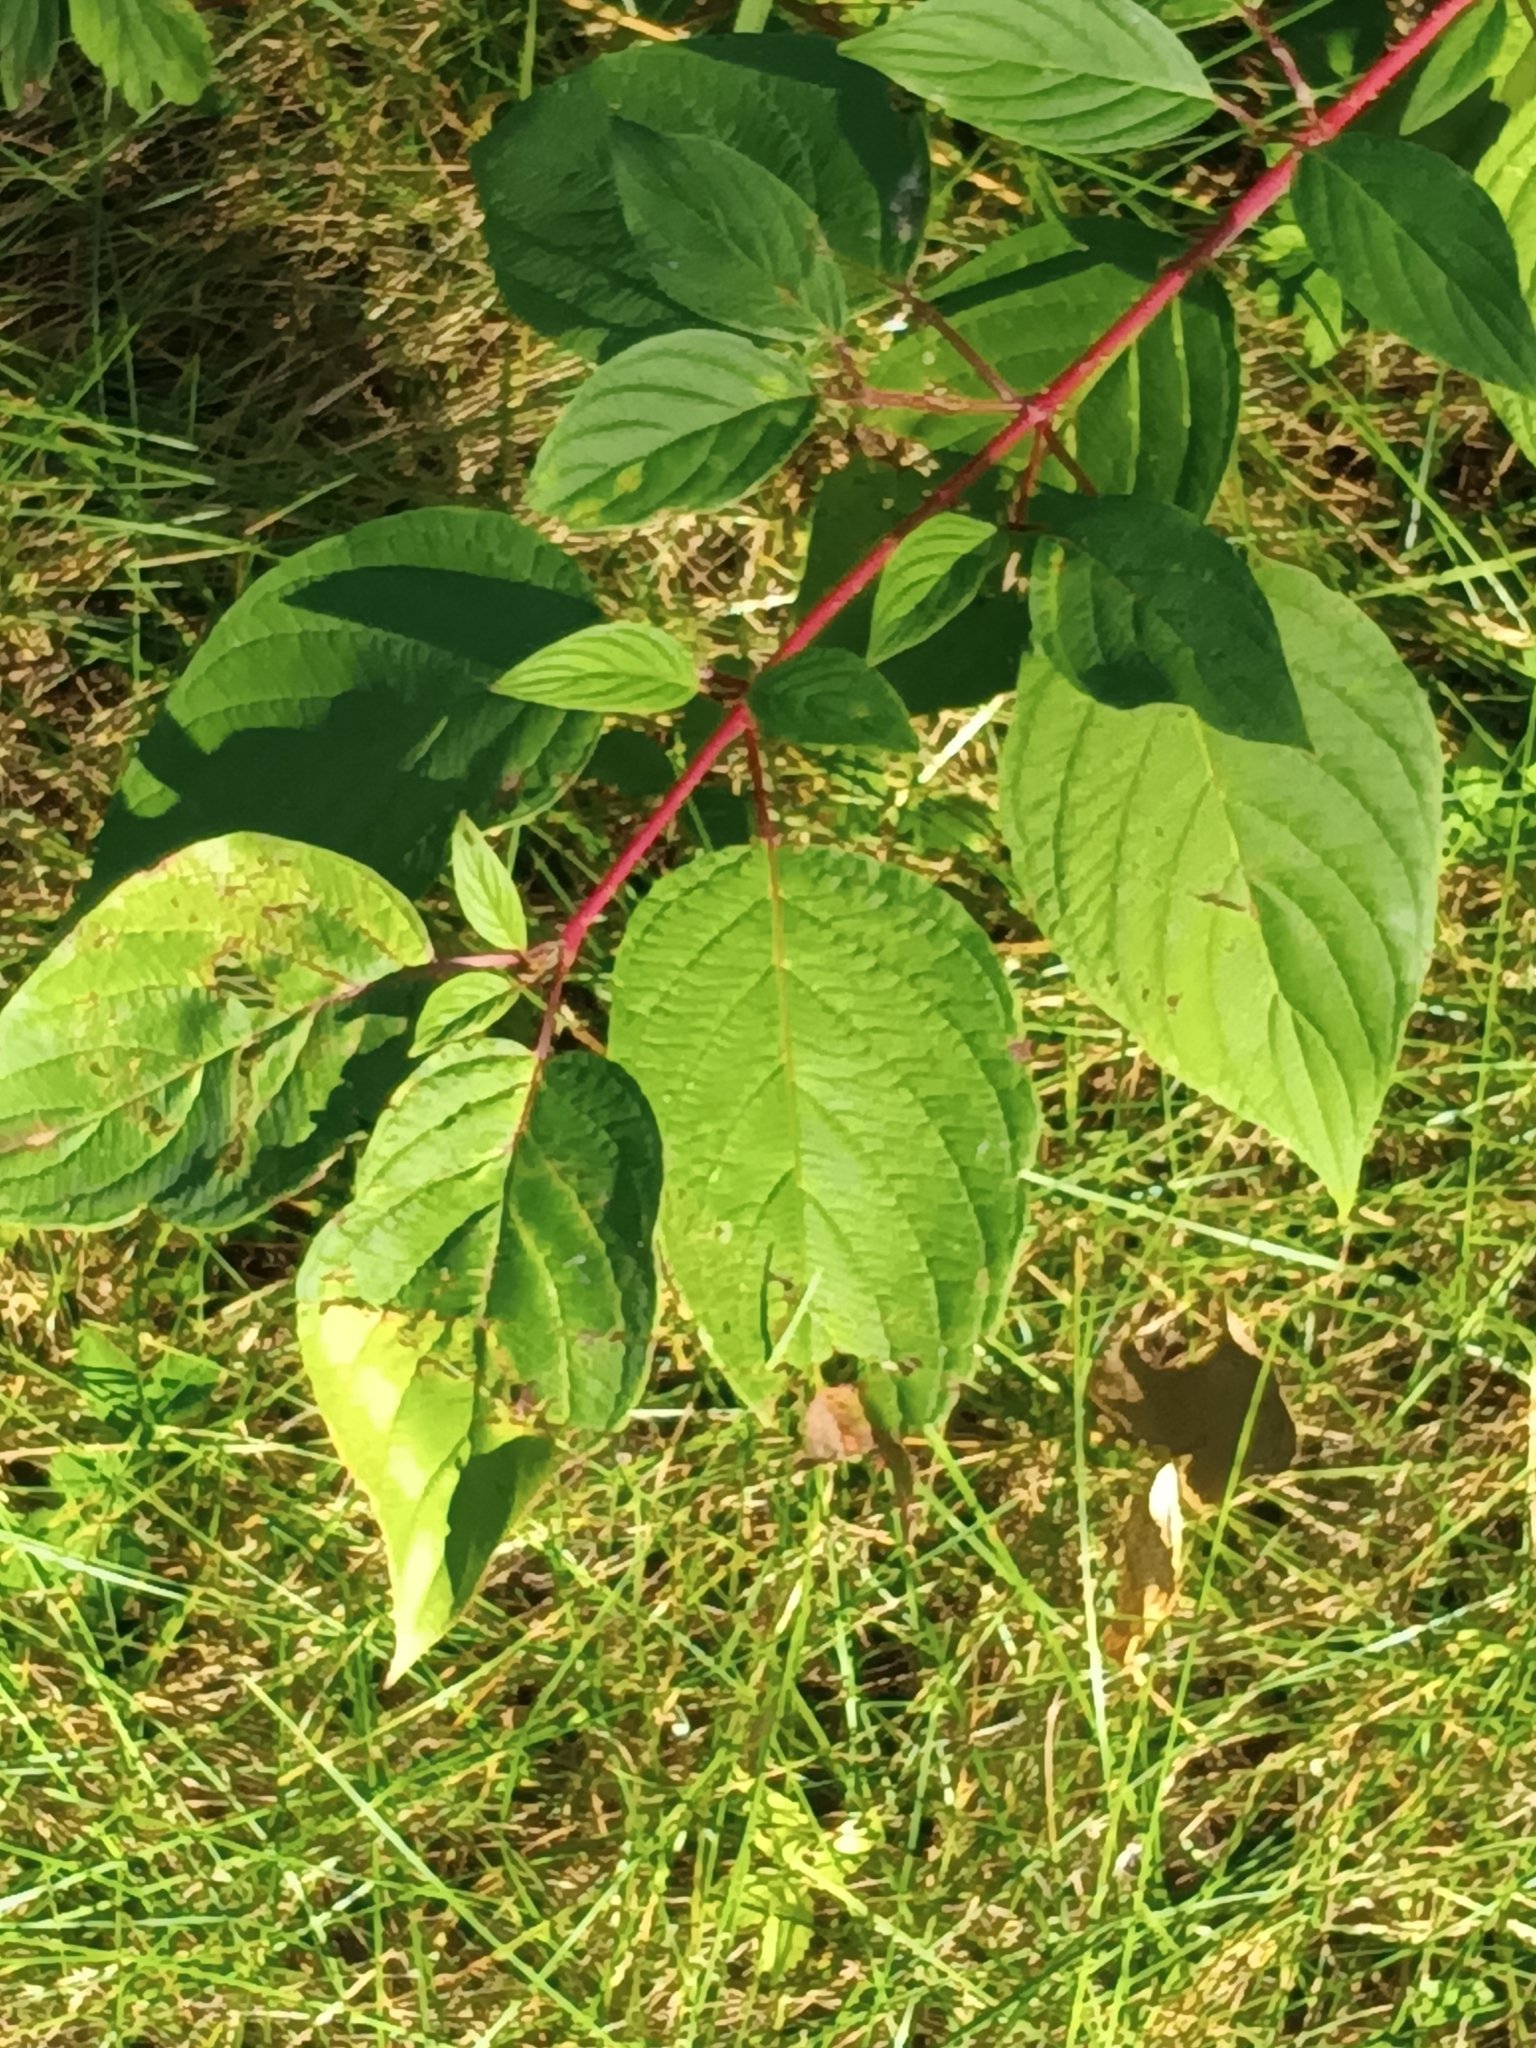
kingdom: Plantae
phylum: Tracheophyta
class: Magnoliopsida
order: Cornales
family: Cornaceae
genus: Cornus
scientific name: Cornus sericea
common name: Red-osier dogwood
